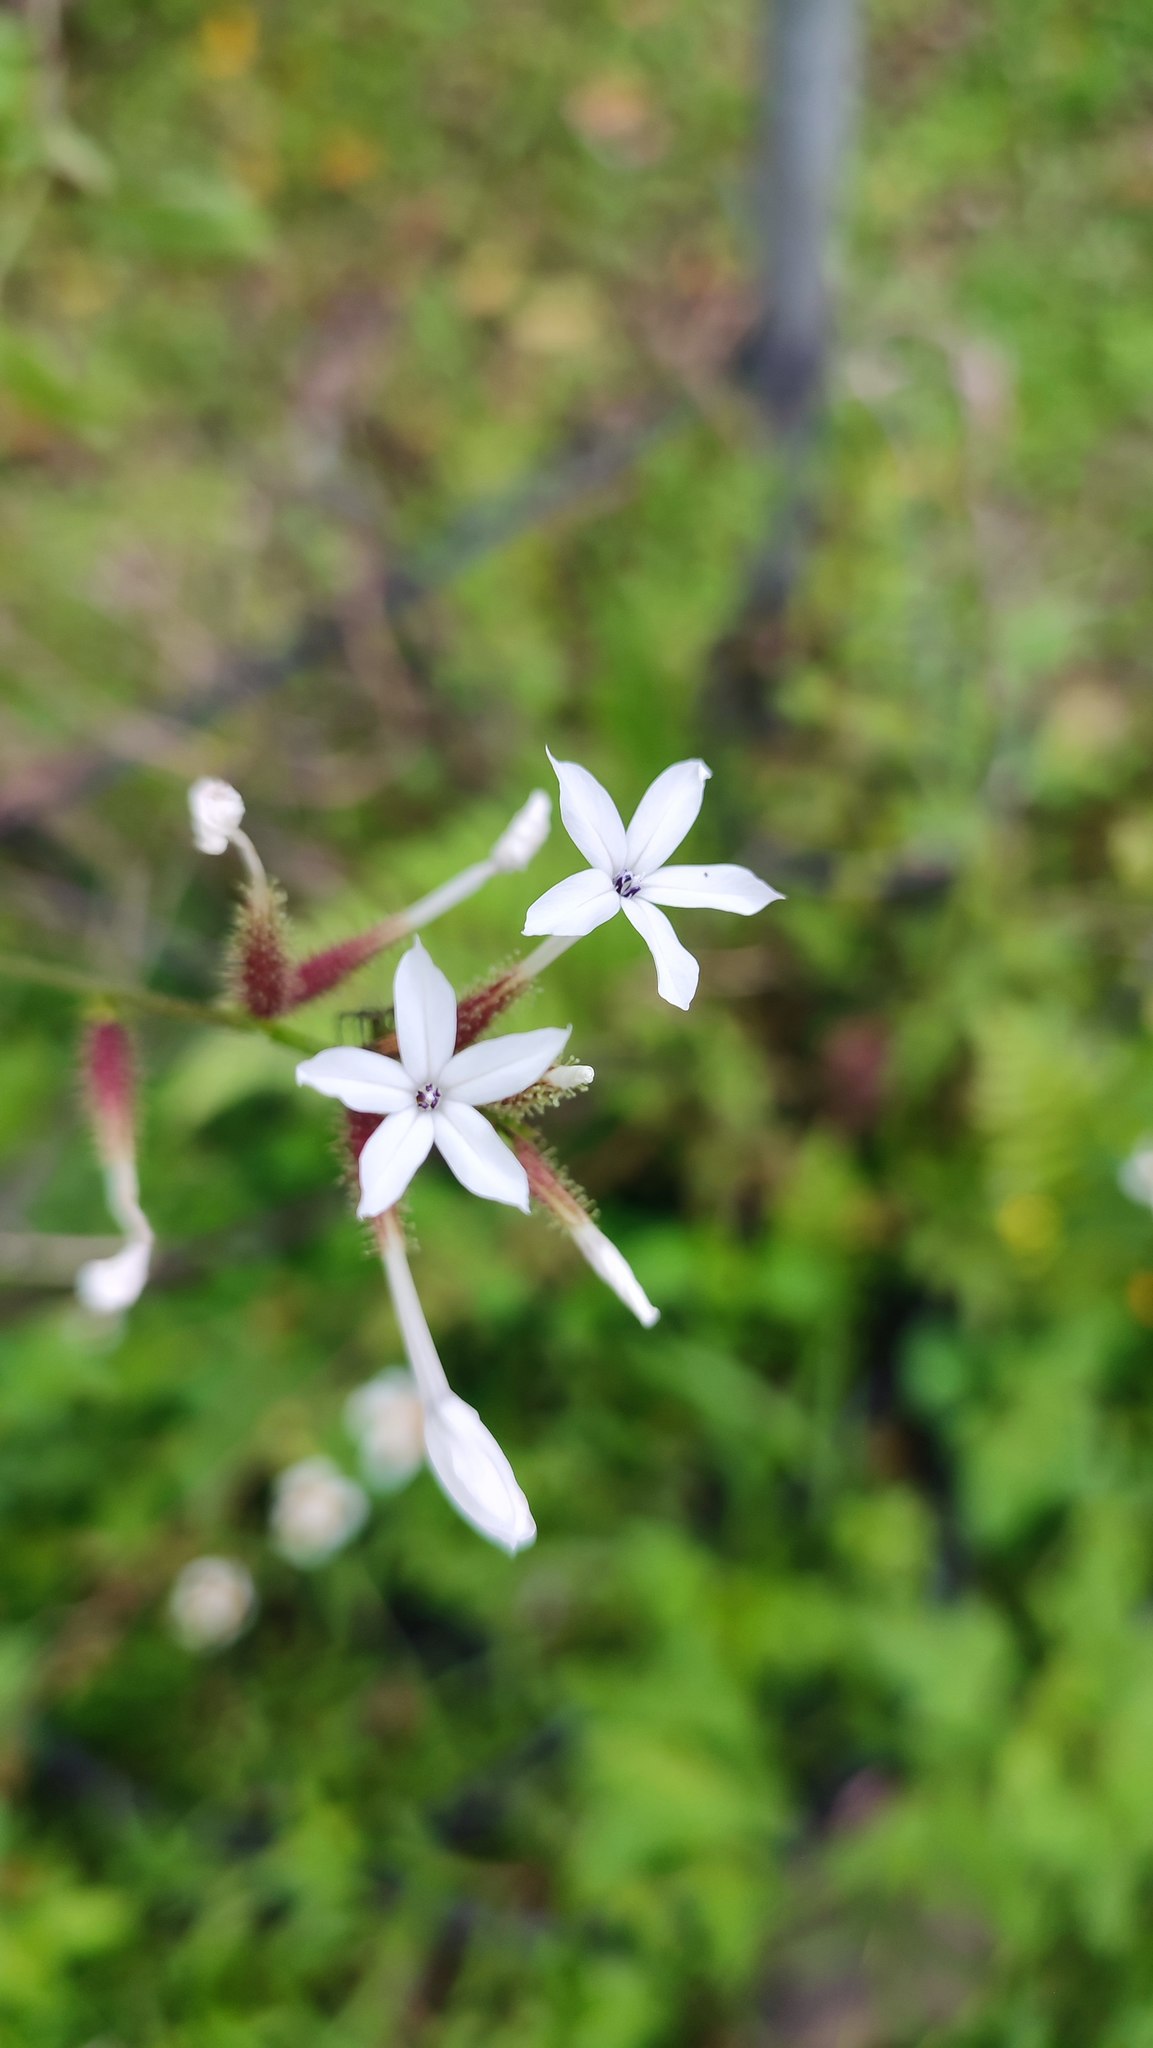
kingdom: Plantae
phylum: Tracheophyta
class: Magnoliopsida
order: Caryophyllales
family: Plumbaginaceae
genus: Plumbago
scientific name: Plumbago zeylanica
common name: Doctorbush
